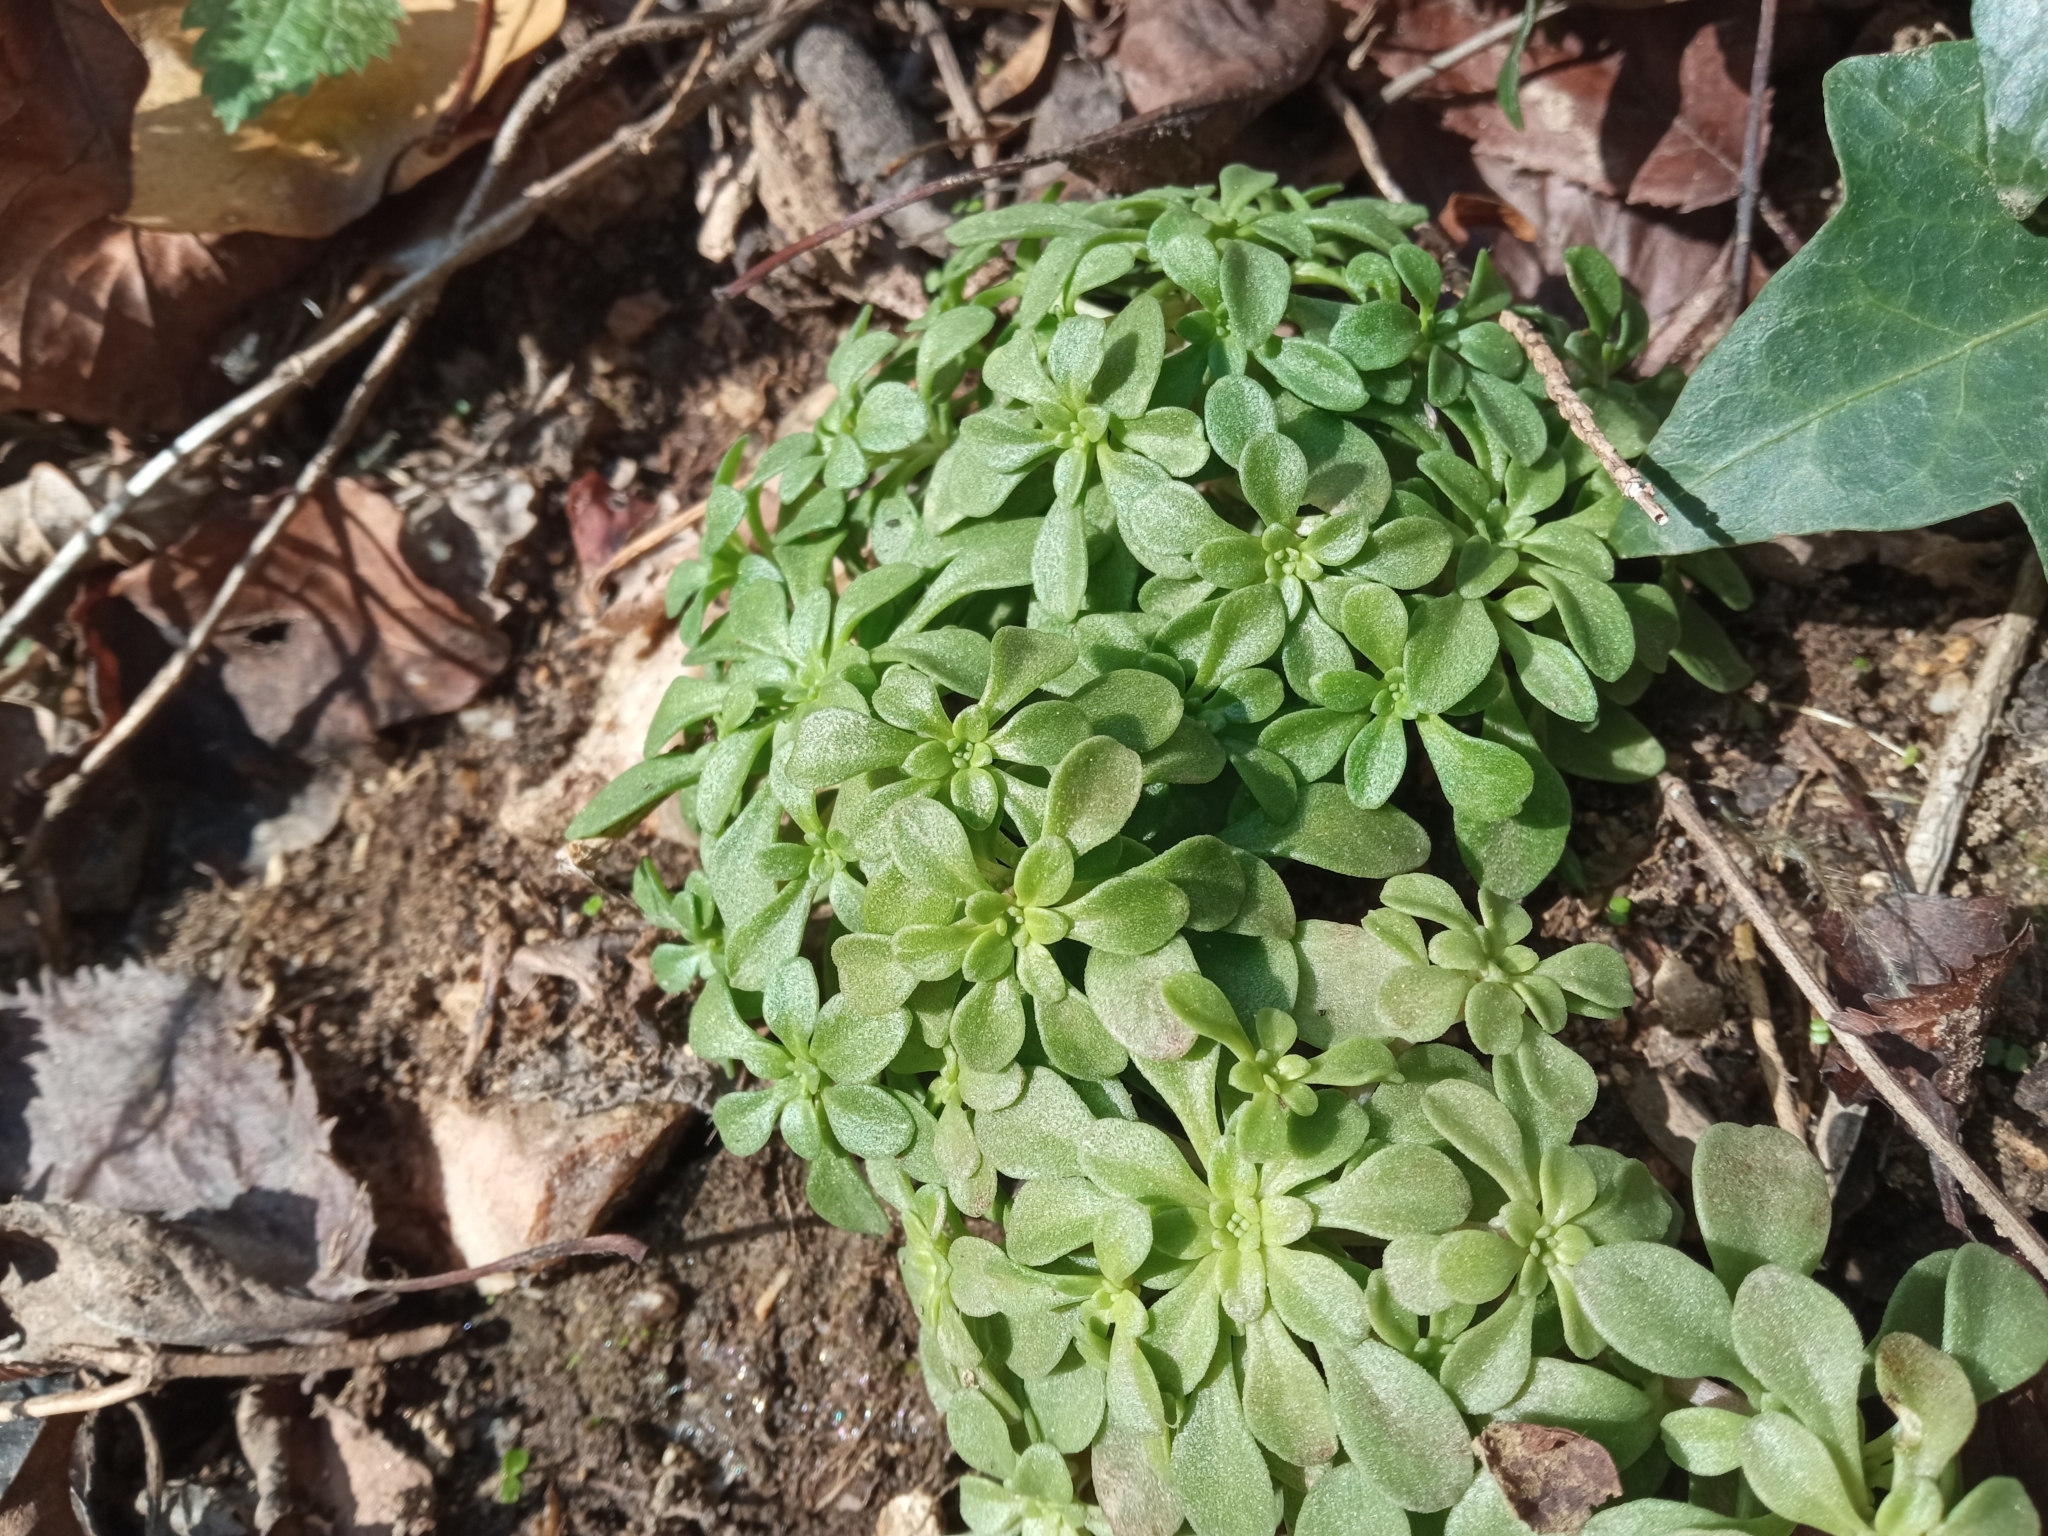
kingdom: Plantae
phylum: Tracheophyta
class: Magnoliopsida
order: Saxifragales
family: Crassulaceae
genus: Sedum
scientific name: Sedum cepaea
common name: Pink stonecrop
